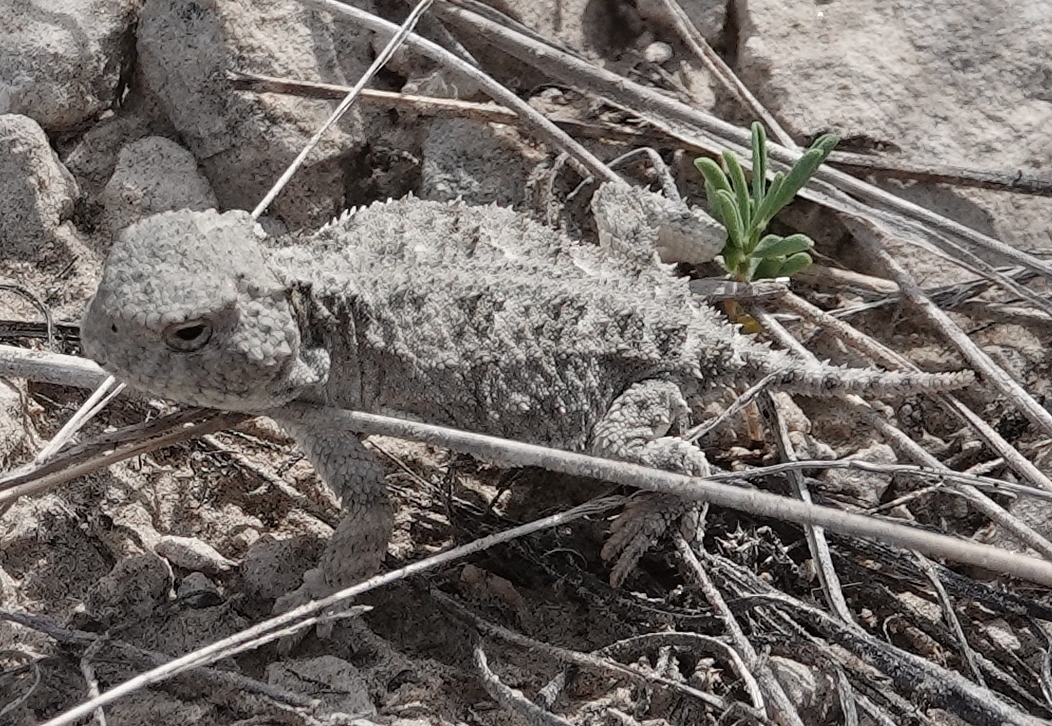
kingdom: Animalia
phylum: Chordata
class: Squamata
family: Phrynosomatidae
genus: Phrynosoma
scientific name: Phrynosoma hernandesi
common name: Greater short-horned lizard
